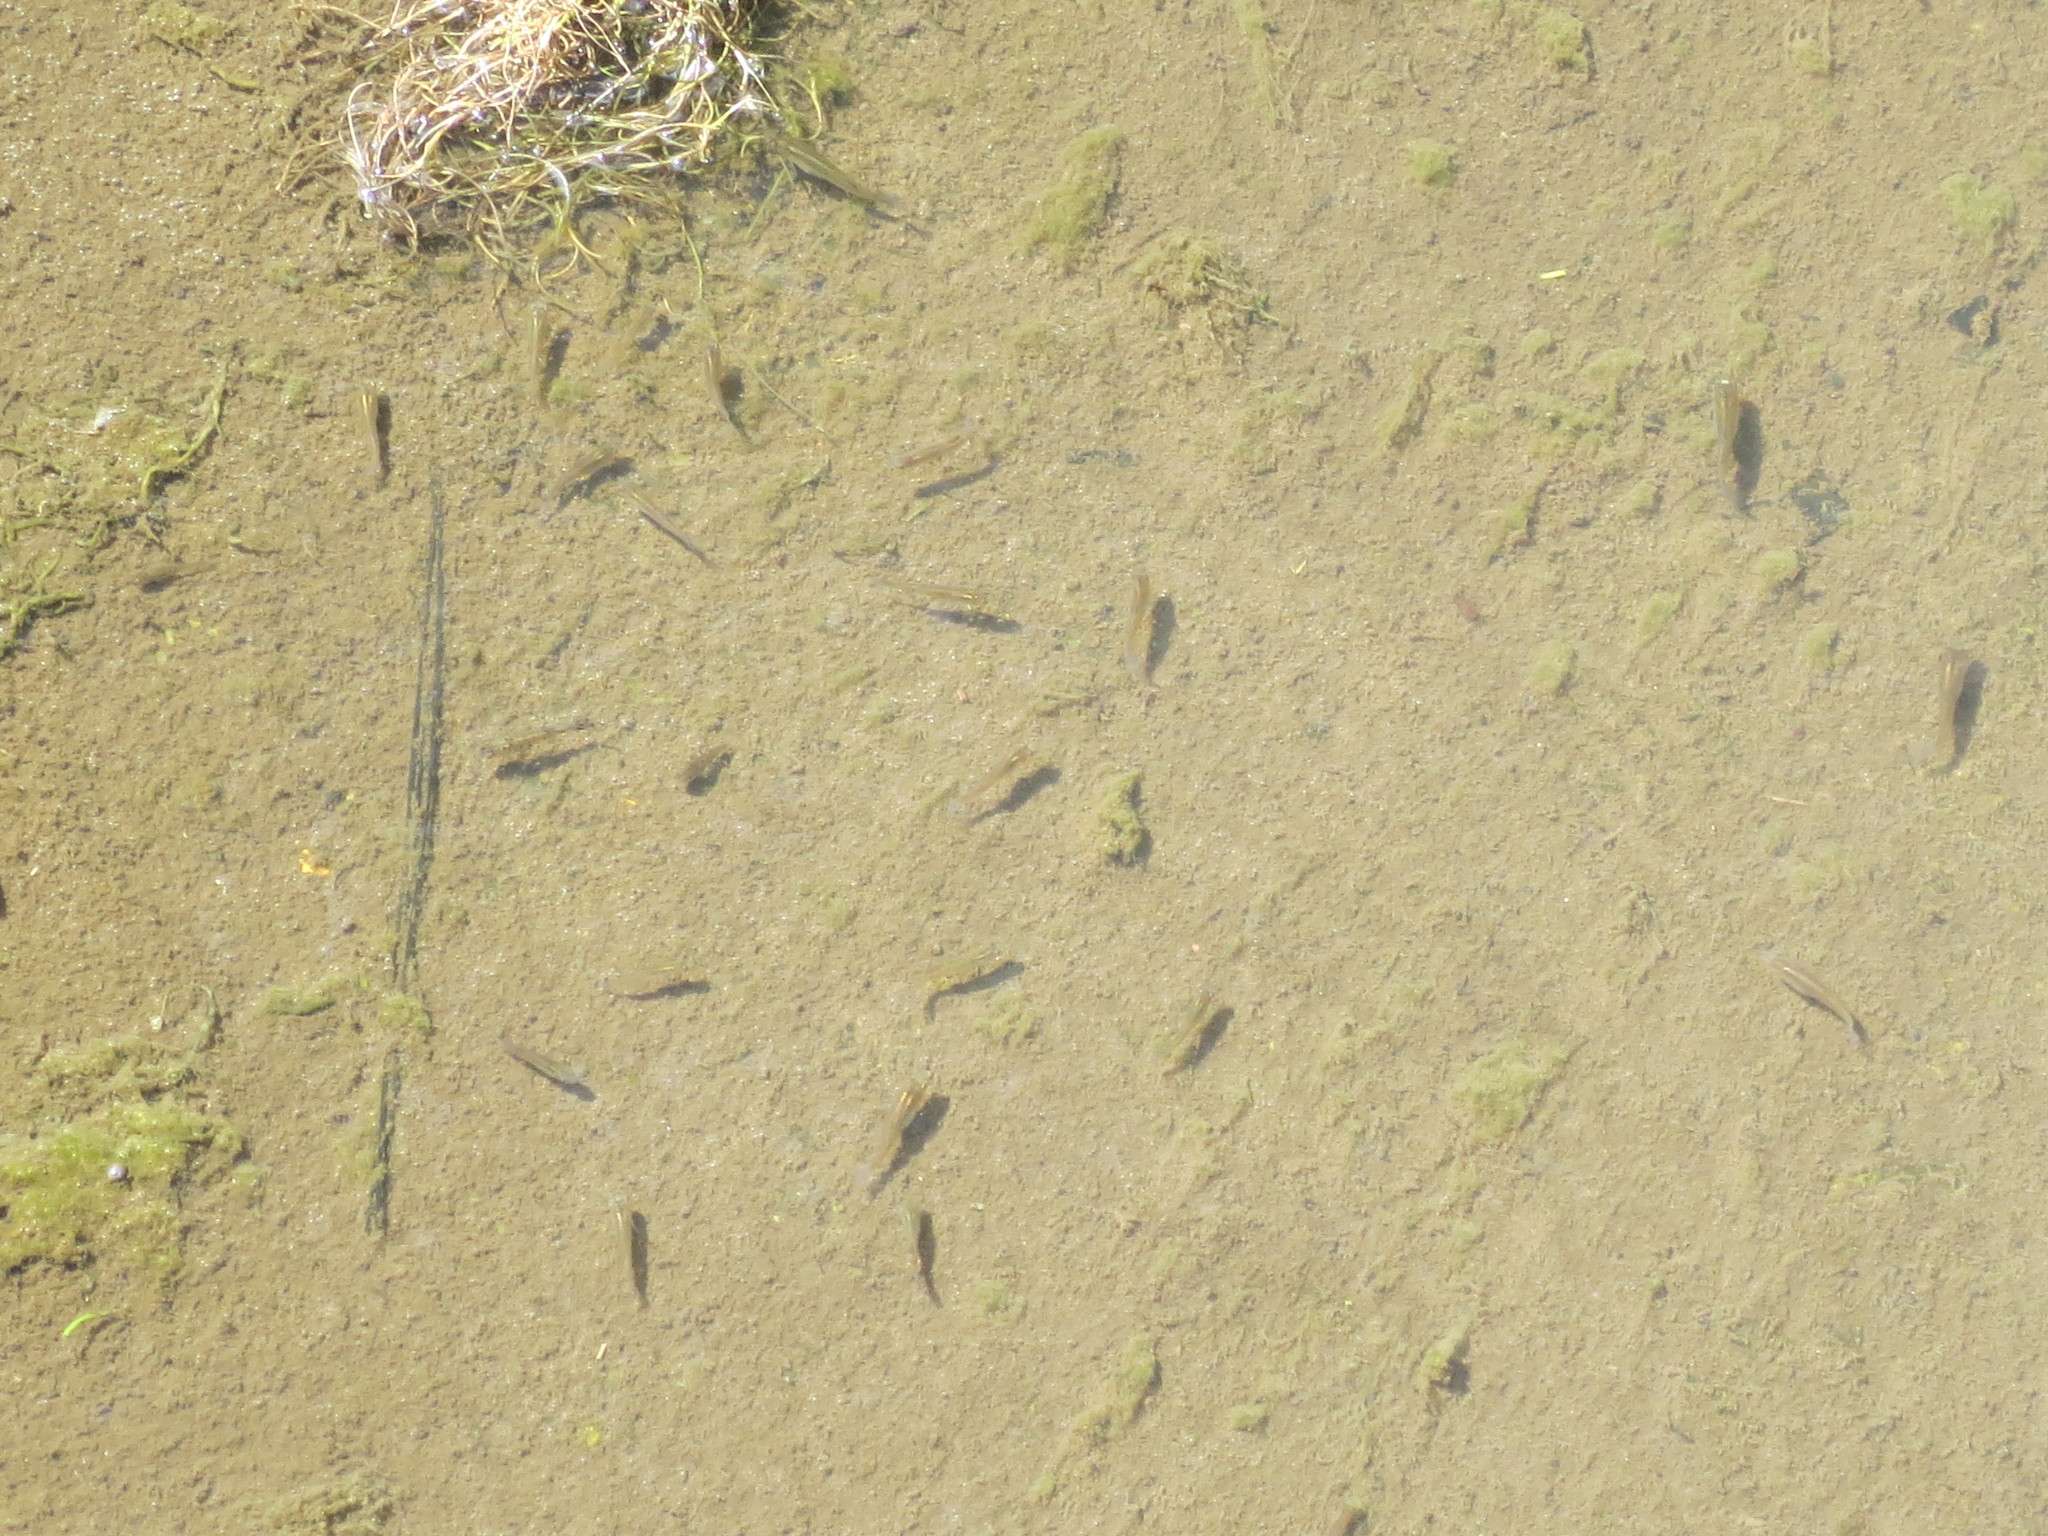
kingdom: Animalia
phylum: Chordata
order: Cyprinodontiformes
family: Poeciliidae
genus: Gambusia
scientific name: Gambusia holbrooki
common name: Eastern mosquitofish
